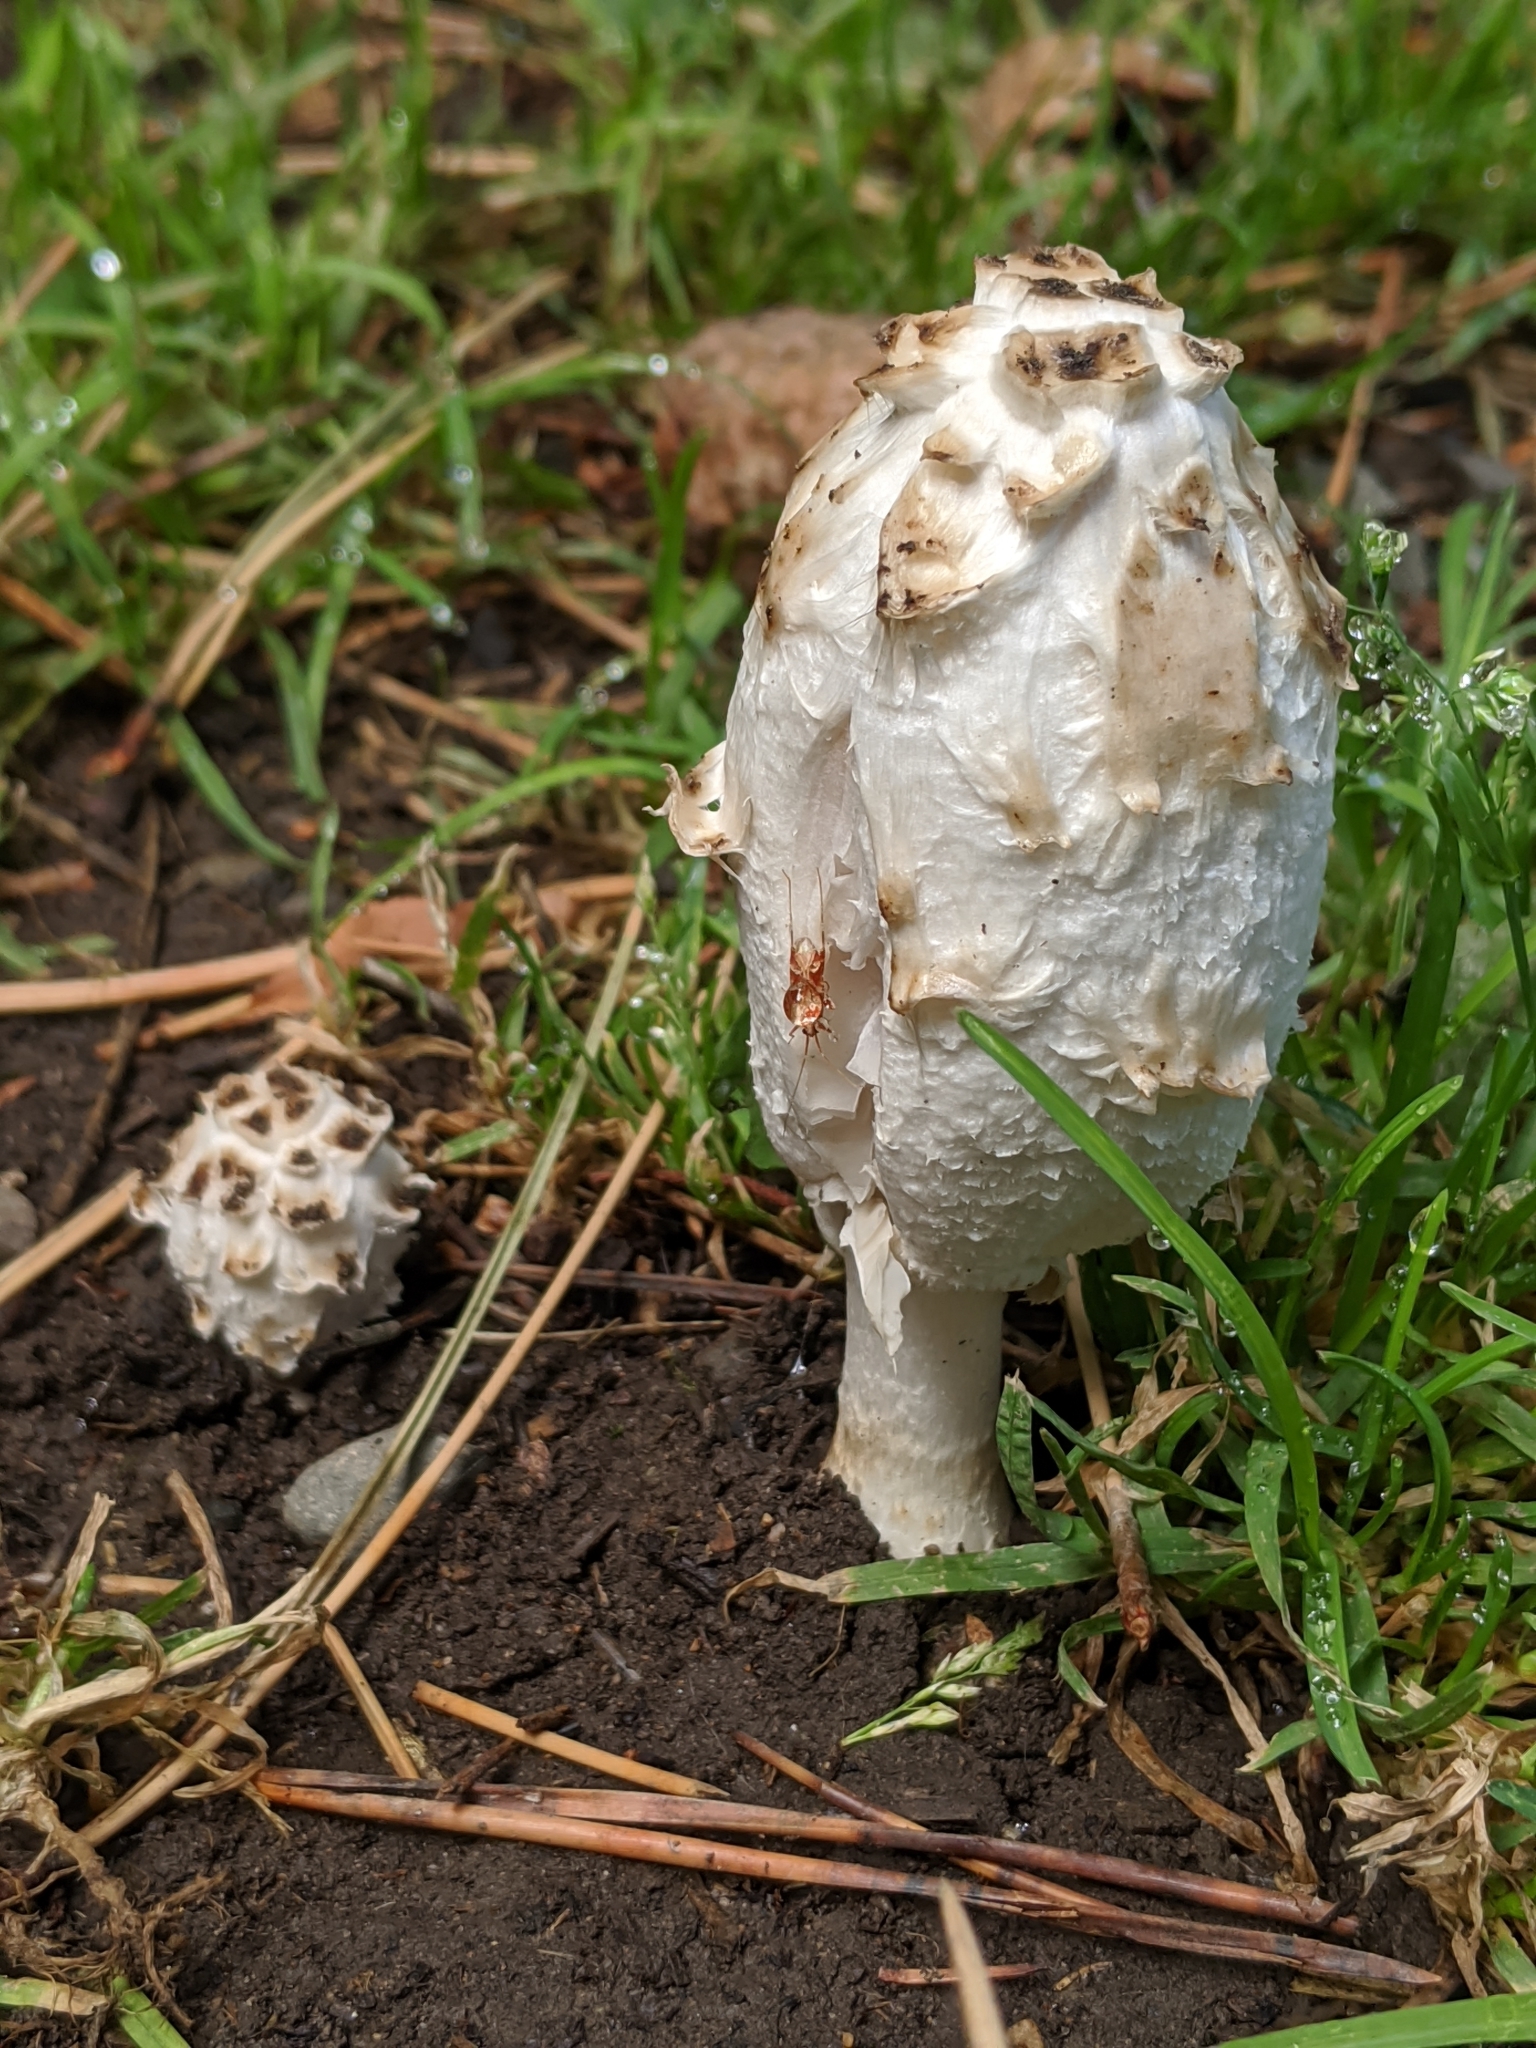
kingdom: Fungi
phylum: Basidiomycota
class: Agaricomycetes
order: Agaricales
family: Agaricaceae
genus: Coprinus
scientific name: Coprinus comatus
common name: Lawyer's wig
